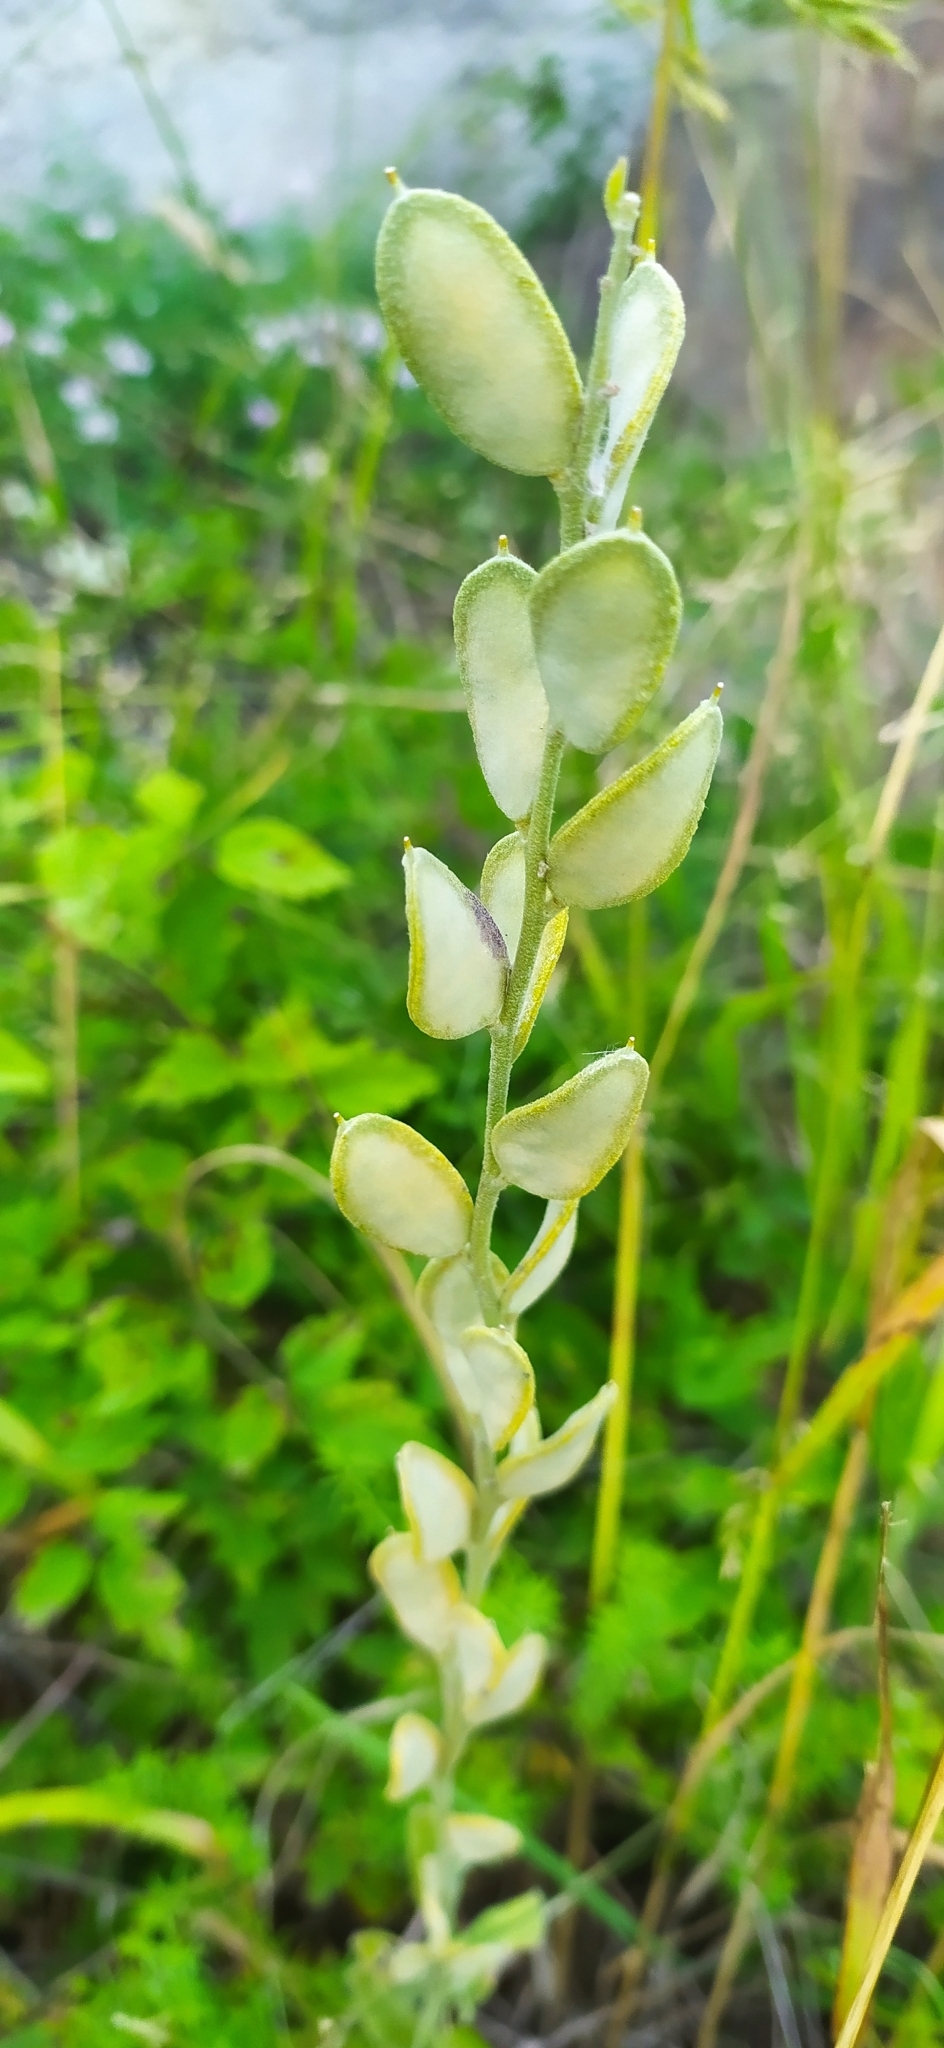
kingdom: Plantae
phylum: Tracheophyta
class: Magnoliopsida
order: Brassicales
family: Brassicaceae
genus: Fibigia
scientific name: Fibigia clypeata
